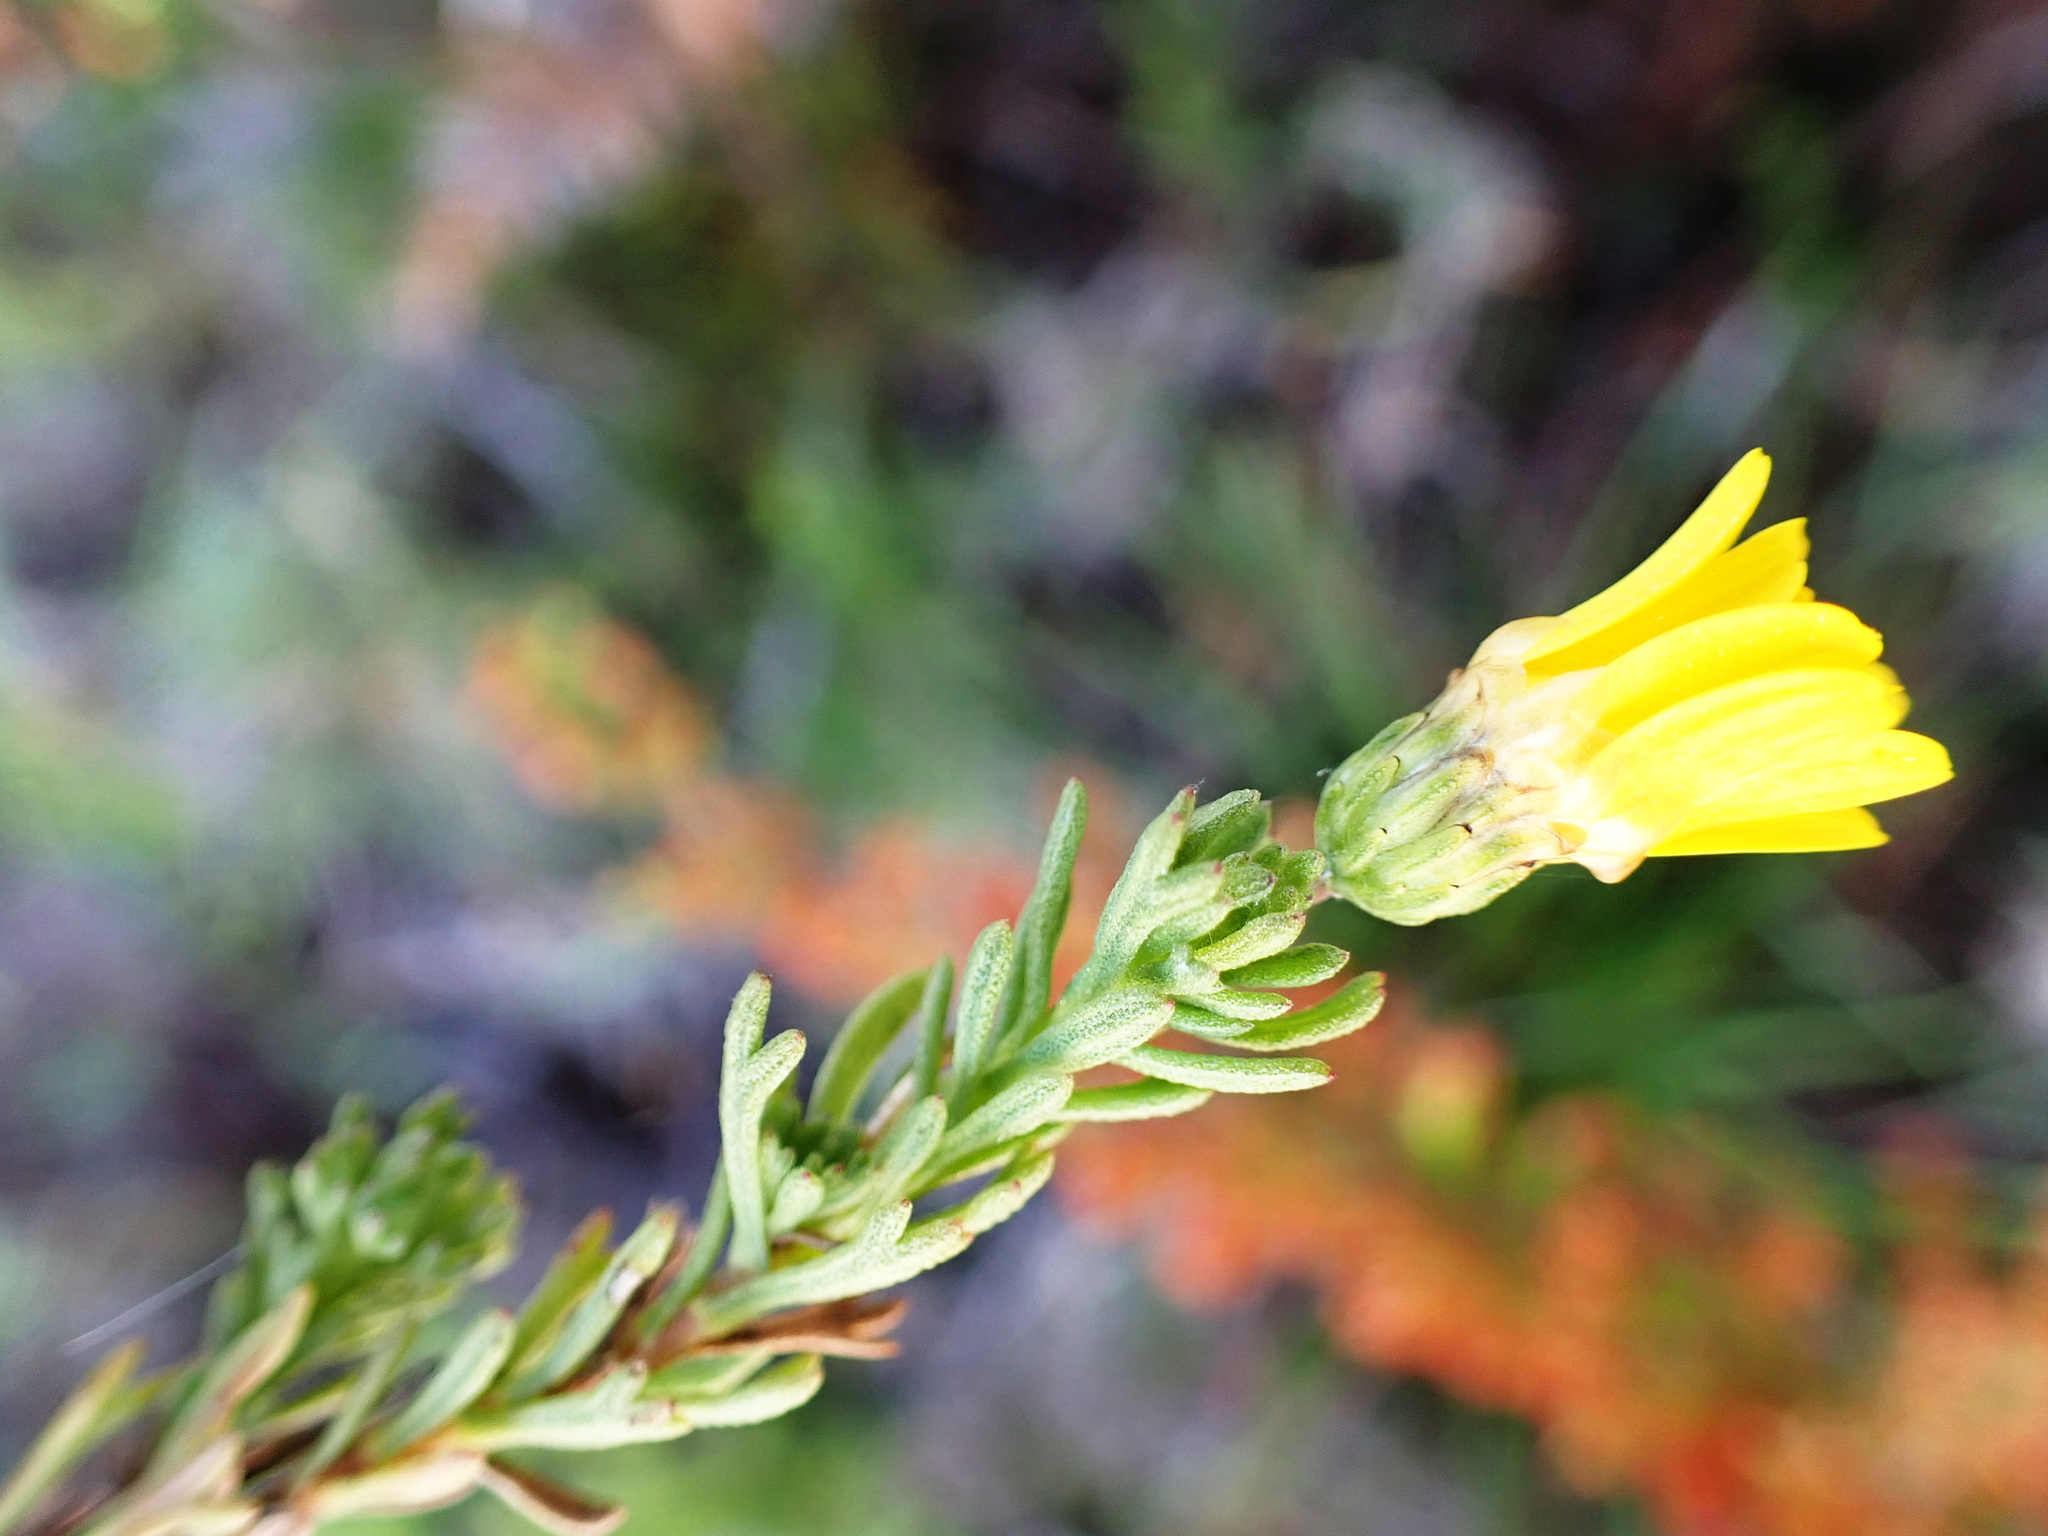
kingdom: Plantae
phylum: Tracheophyta
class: Magnoliopsida
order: Asterales
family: Asteraceae
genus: Ursinia
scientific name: Ursinia trifida
